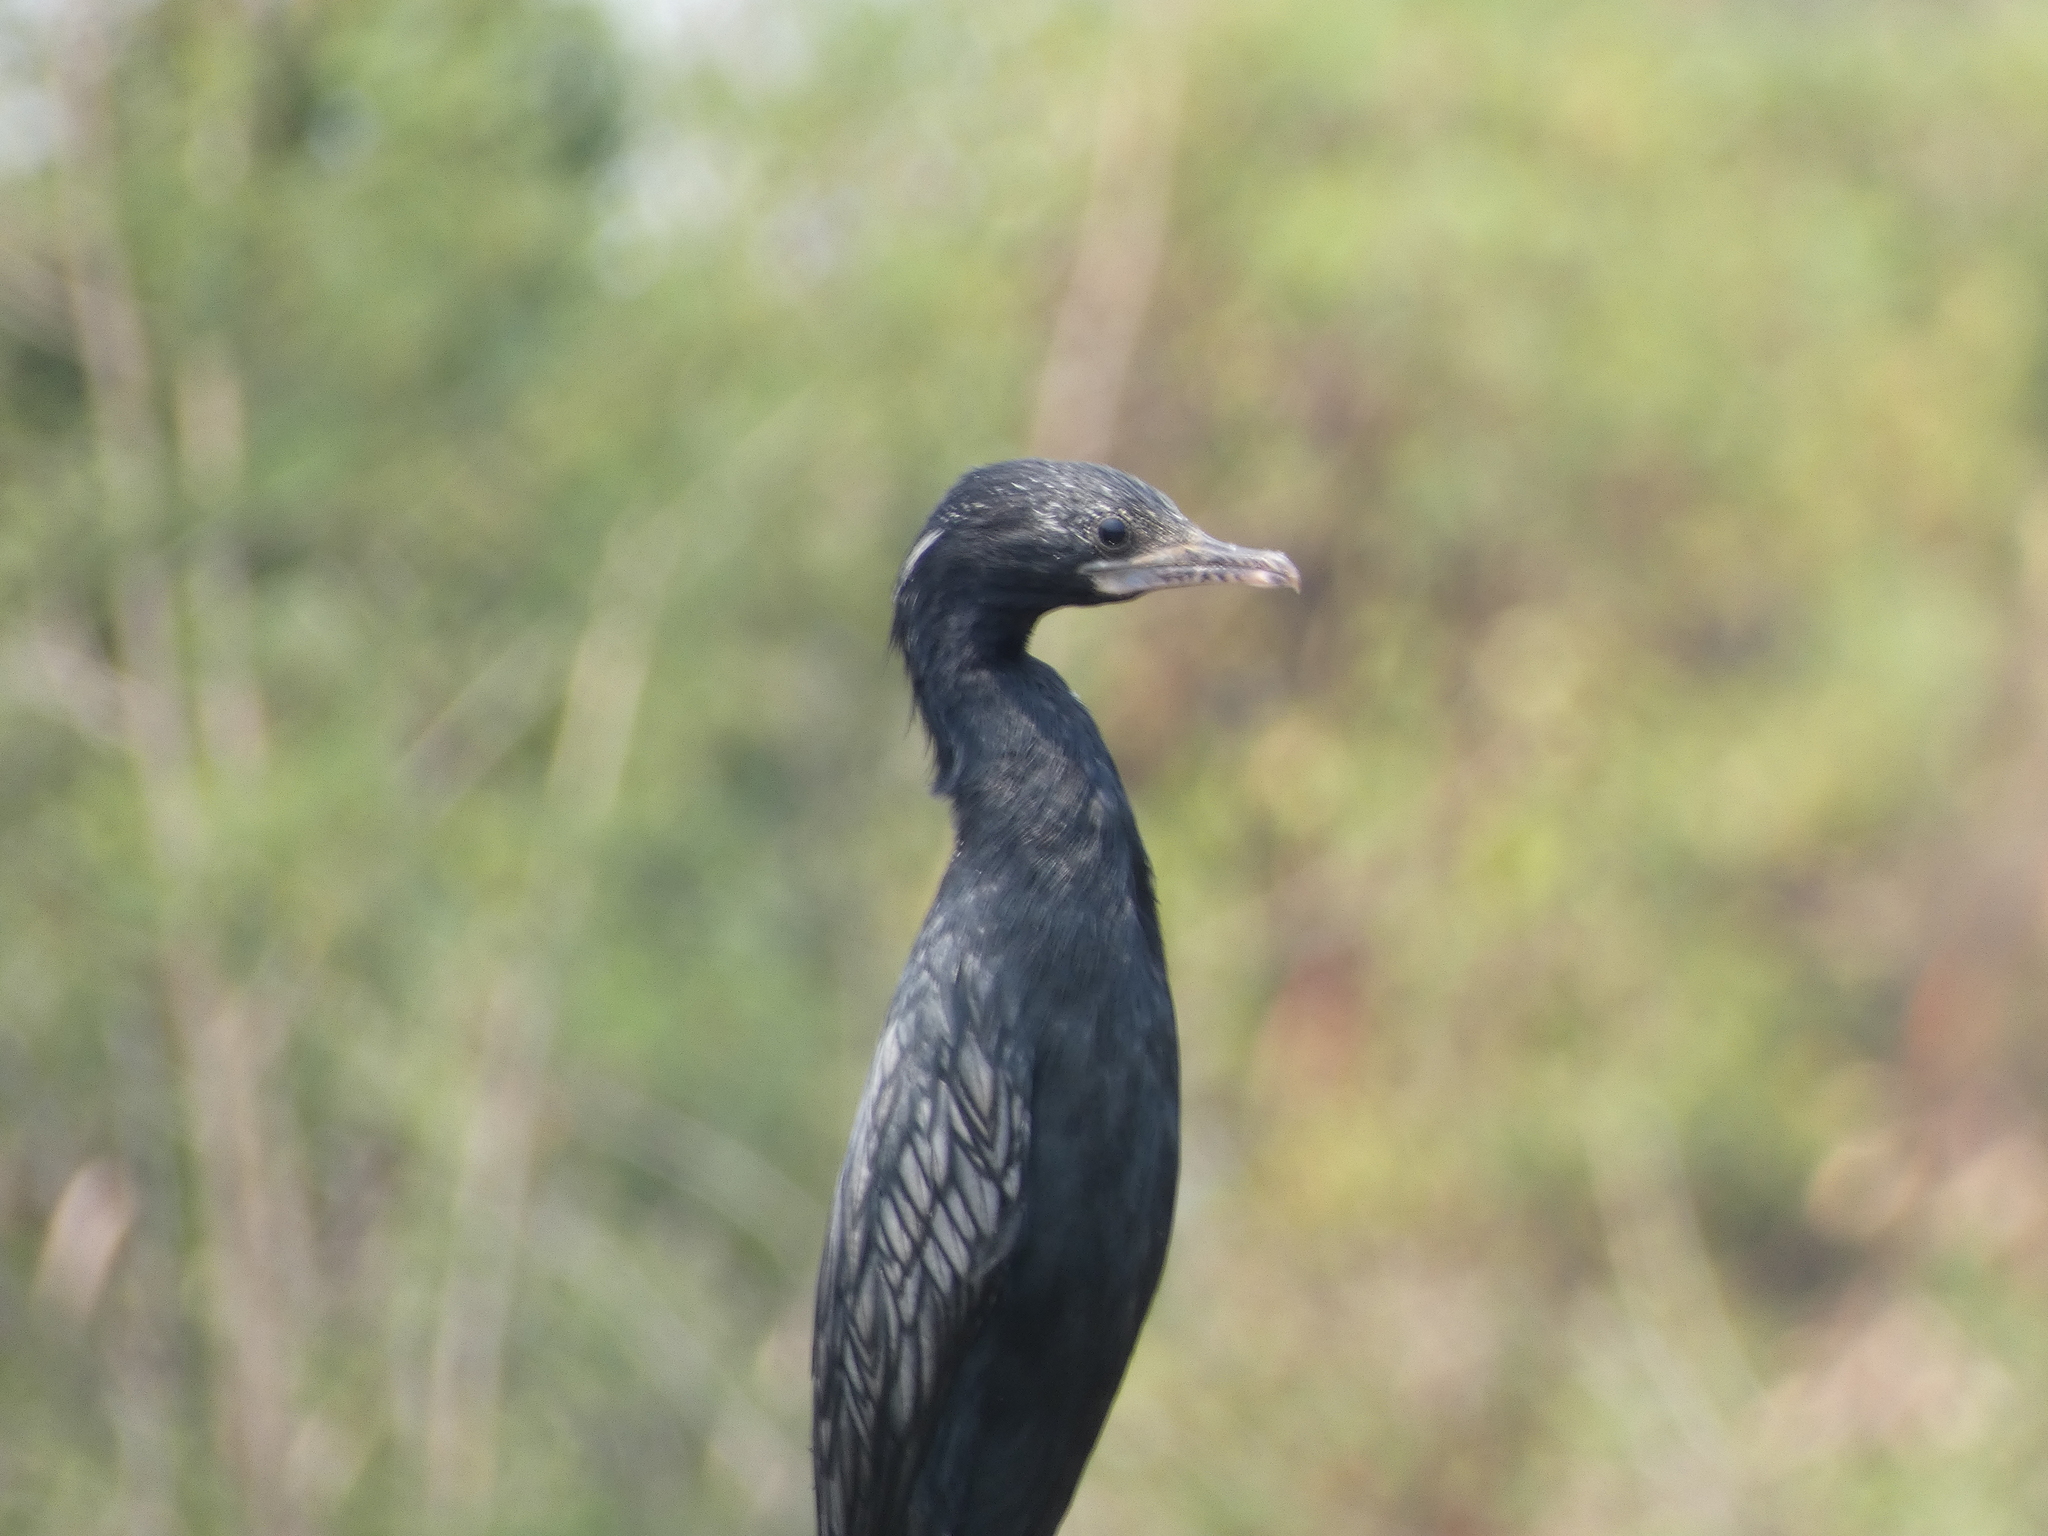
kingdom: Animalia
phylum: Chordata
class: Aves
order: Suliformes
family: Phalacrocoracidae
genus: Microcarbo
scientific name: Microcarbo niger
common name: Little cormorant
